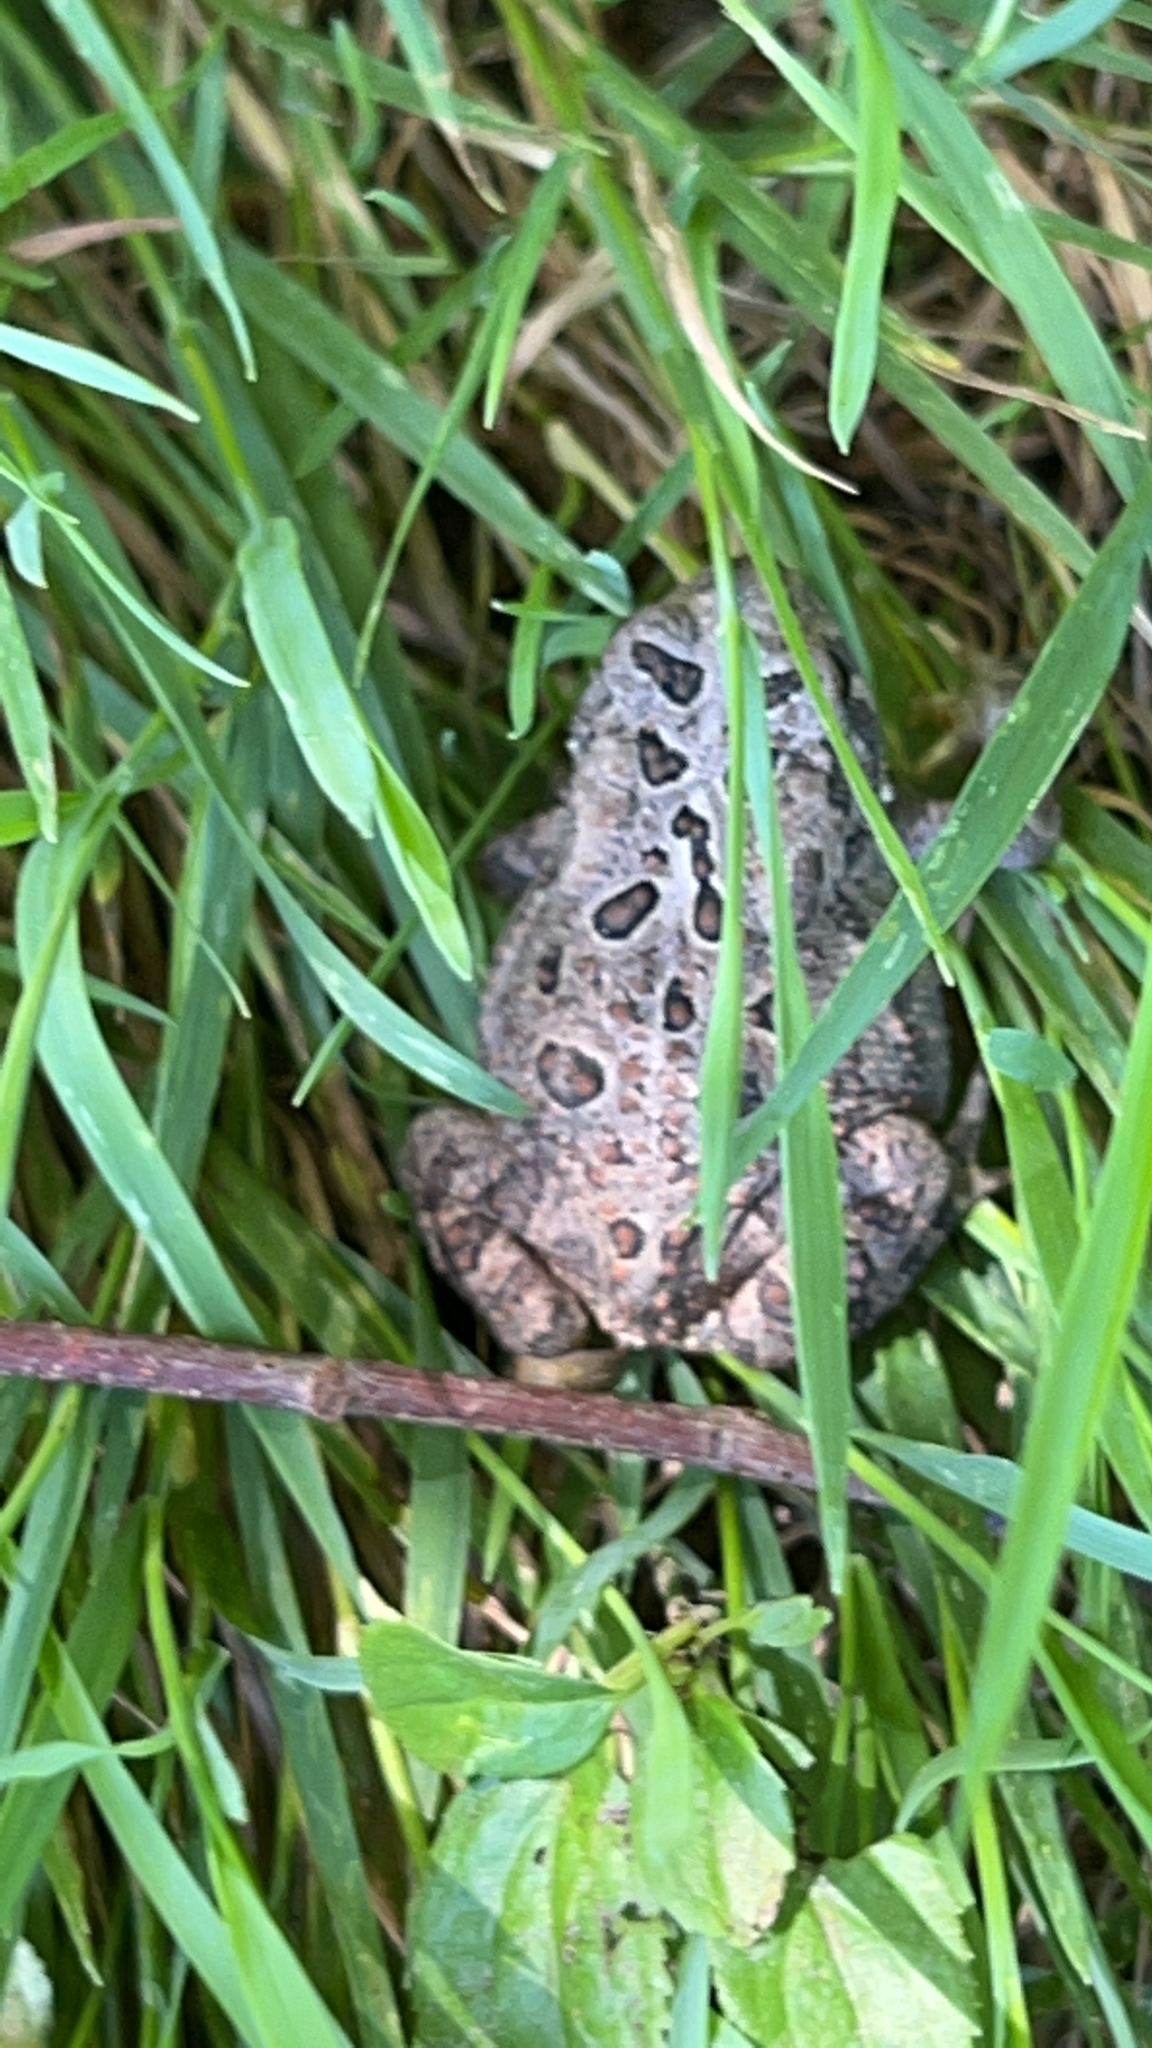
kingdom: Animalia
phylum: Chordata
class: Amphibia
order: Anura
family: Bufonidae
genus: Anaxyrus
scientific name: Anaxyrus americanus
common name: American toad
